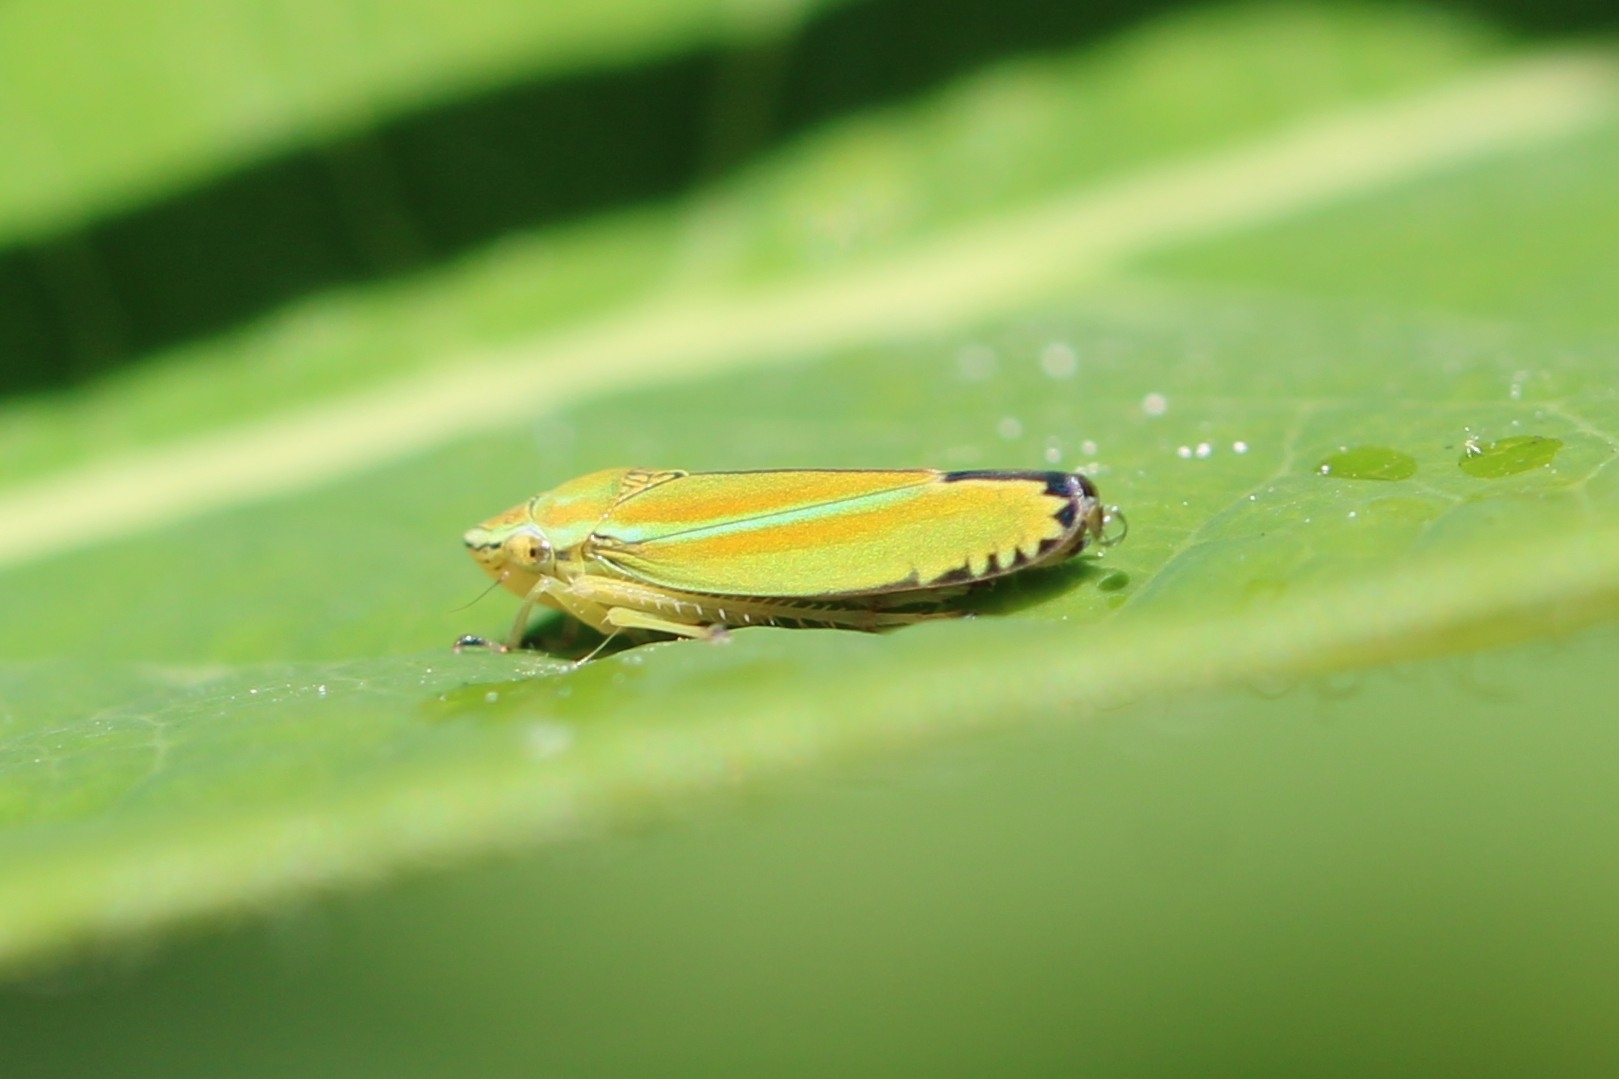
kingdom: Animalia
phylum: Arthropoda
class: Insecta
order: Hemiptera
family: Cicadellidae
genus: Graphocephala
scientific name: Graphocephala versuta
